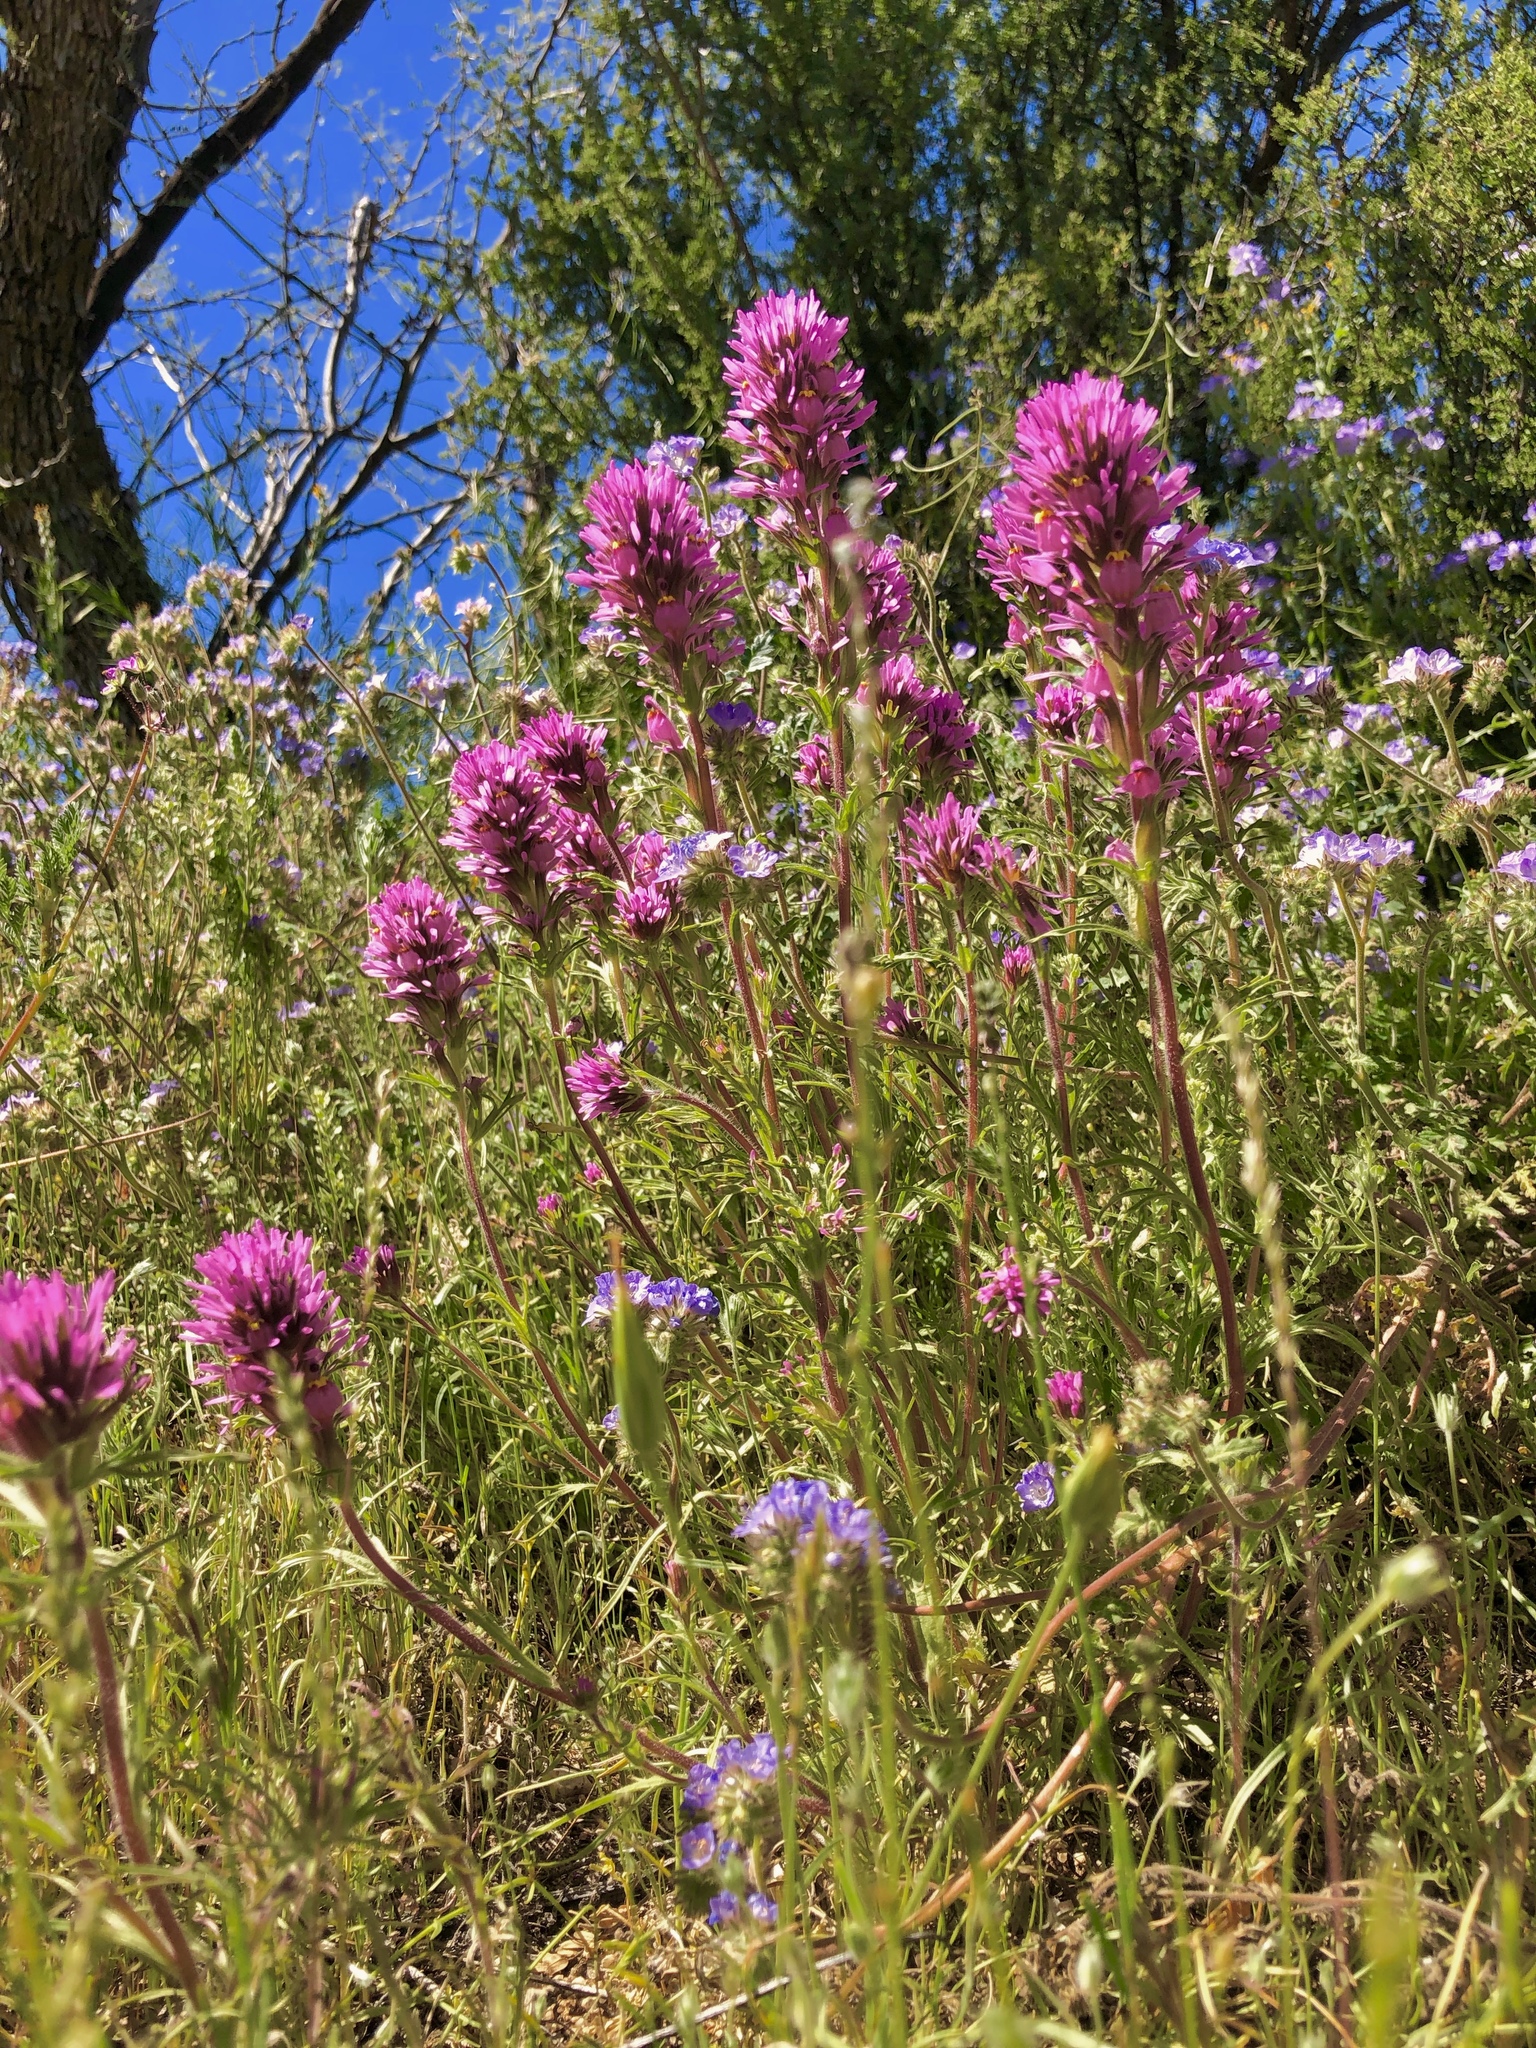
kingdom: Plantae
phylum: Tracheophyta
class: Magnoliopsida
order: Lamiales
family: Orobanchaceae
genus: Castilleja
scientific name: Castilleja exserta
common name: Purple owl-clover
